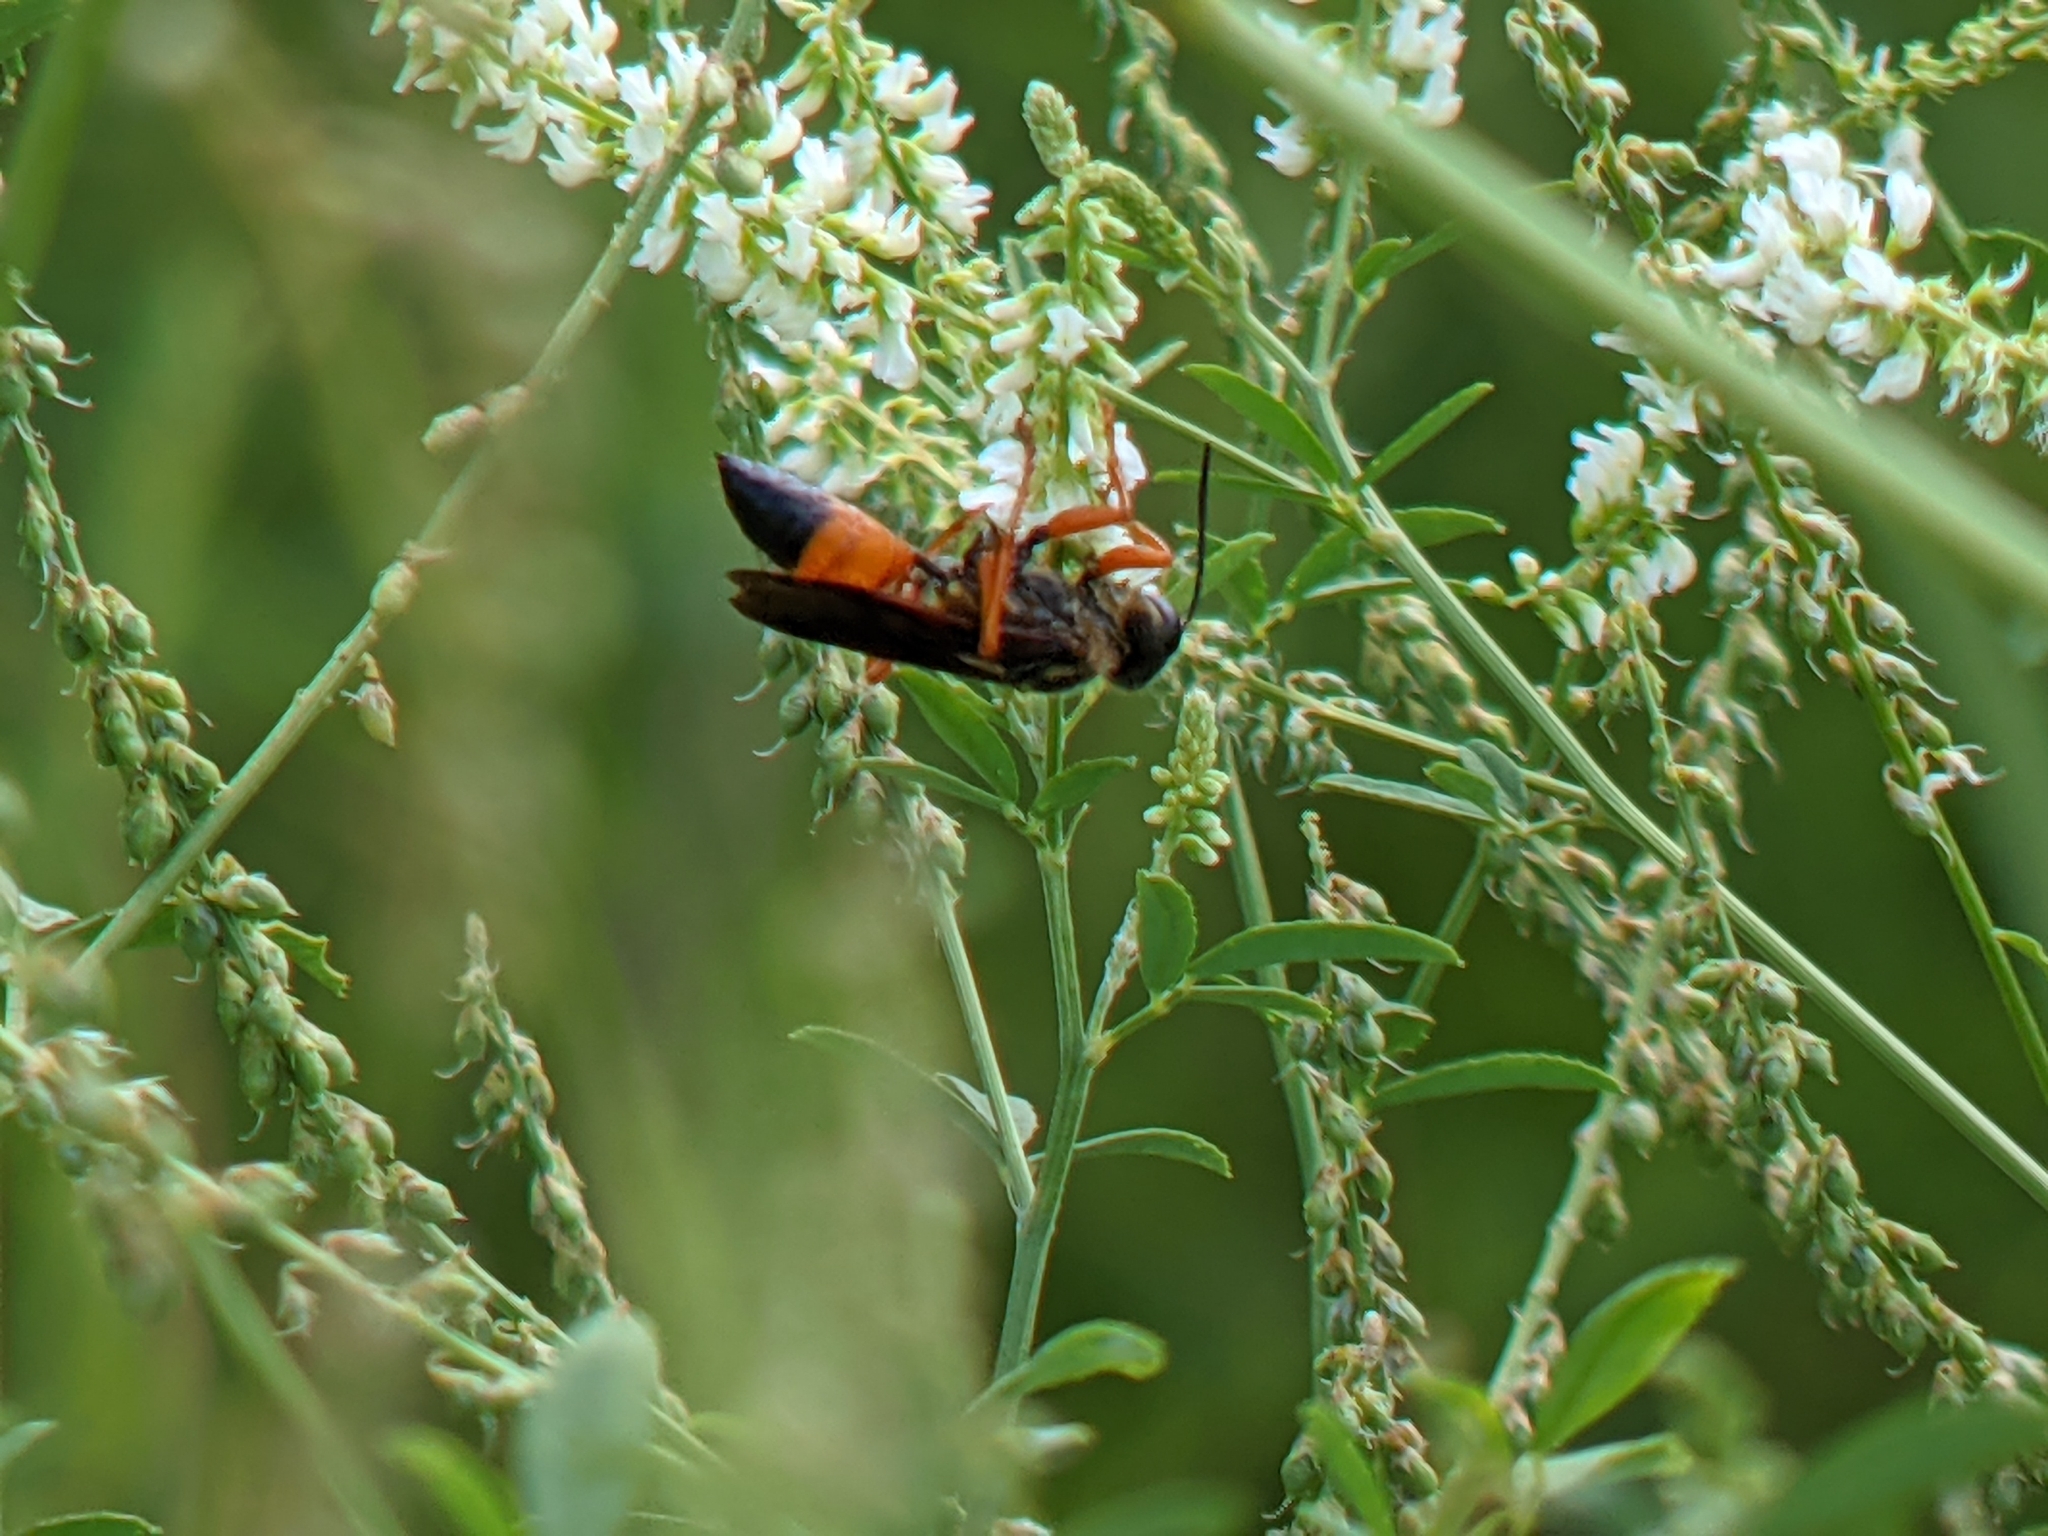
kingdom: Animalia
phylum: Arthropoda
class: Insecta
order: Hymenoptera
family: Sphecidae
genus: Sphex
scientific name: Sphex ichneumoneus
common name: Great golden digger wasp
